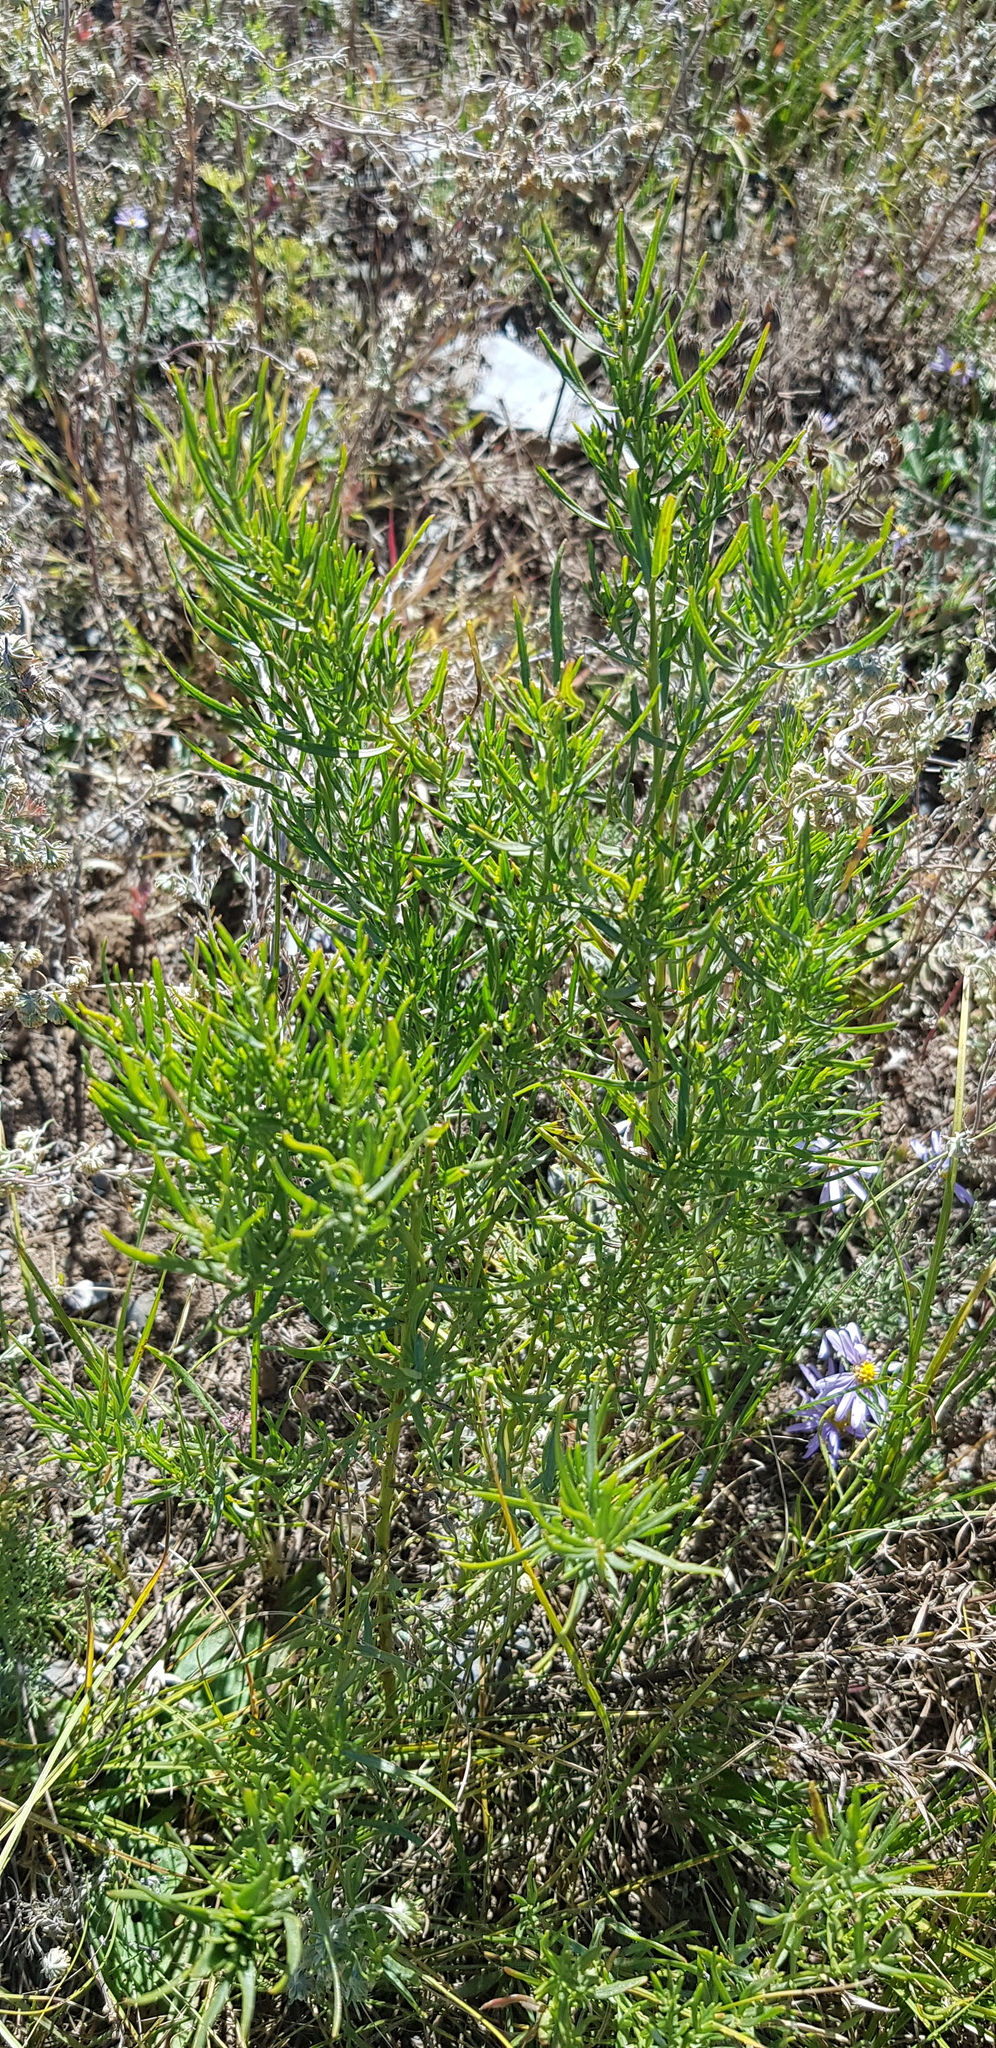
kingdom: Plantae
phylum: Tracheophyta
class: Magnoliopsida
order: Asterales
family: Asteraceae
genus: Artemisia
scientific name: Artemisia dracunculus
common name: Tarragon
